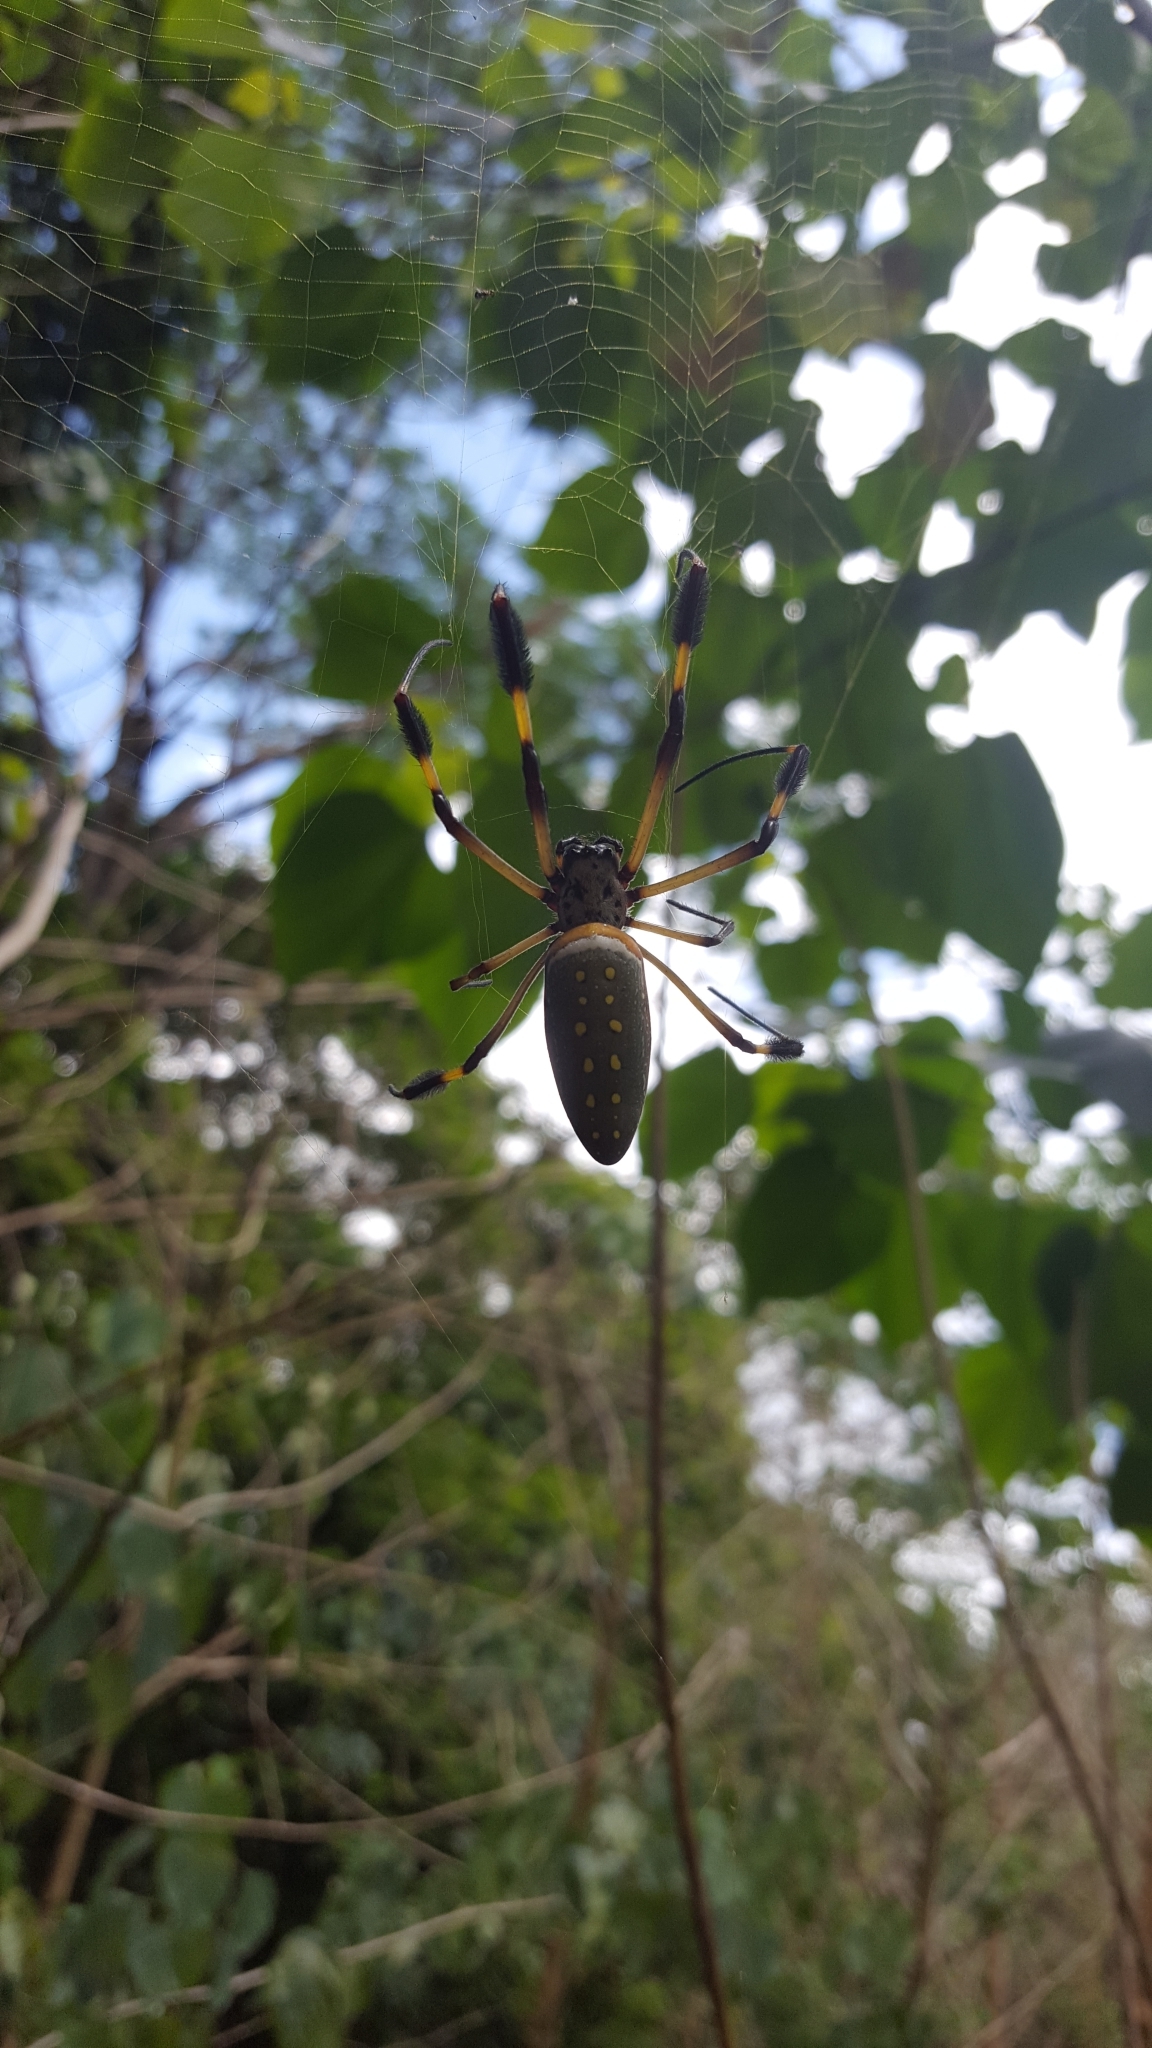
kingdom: Animalia
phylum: Arthropoda
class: Arachnida
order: Araneae
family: Araneidae
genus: Trichonephila
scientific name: Trichonephila clavipes
